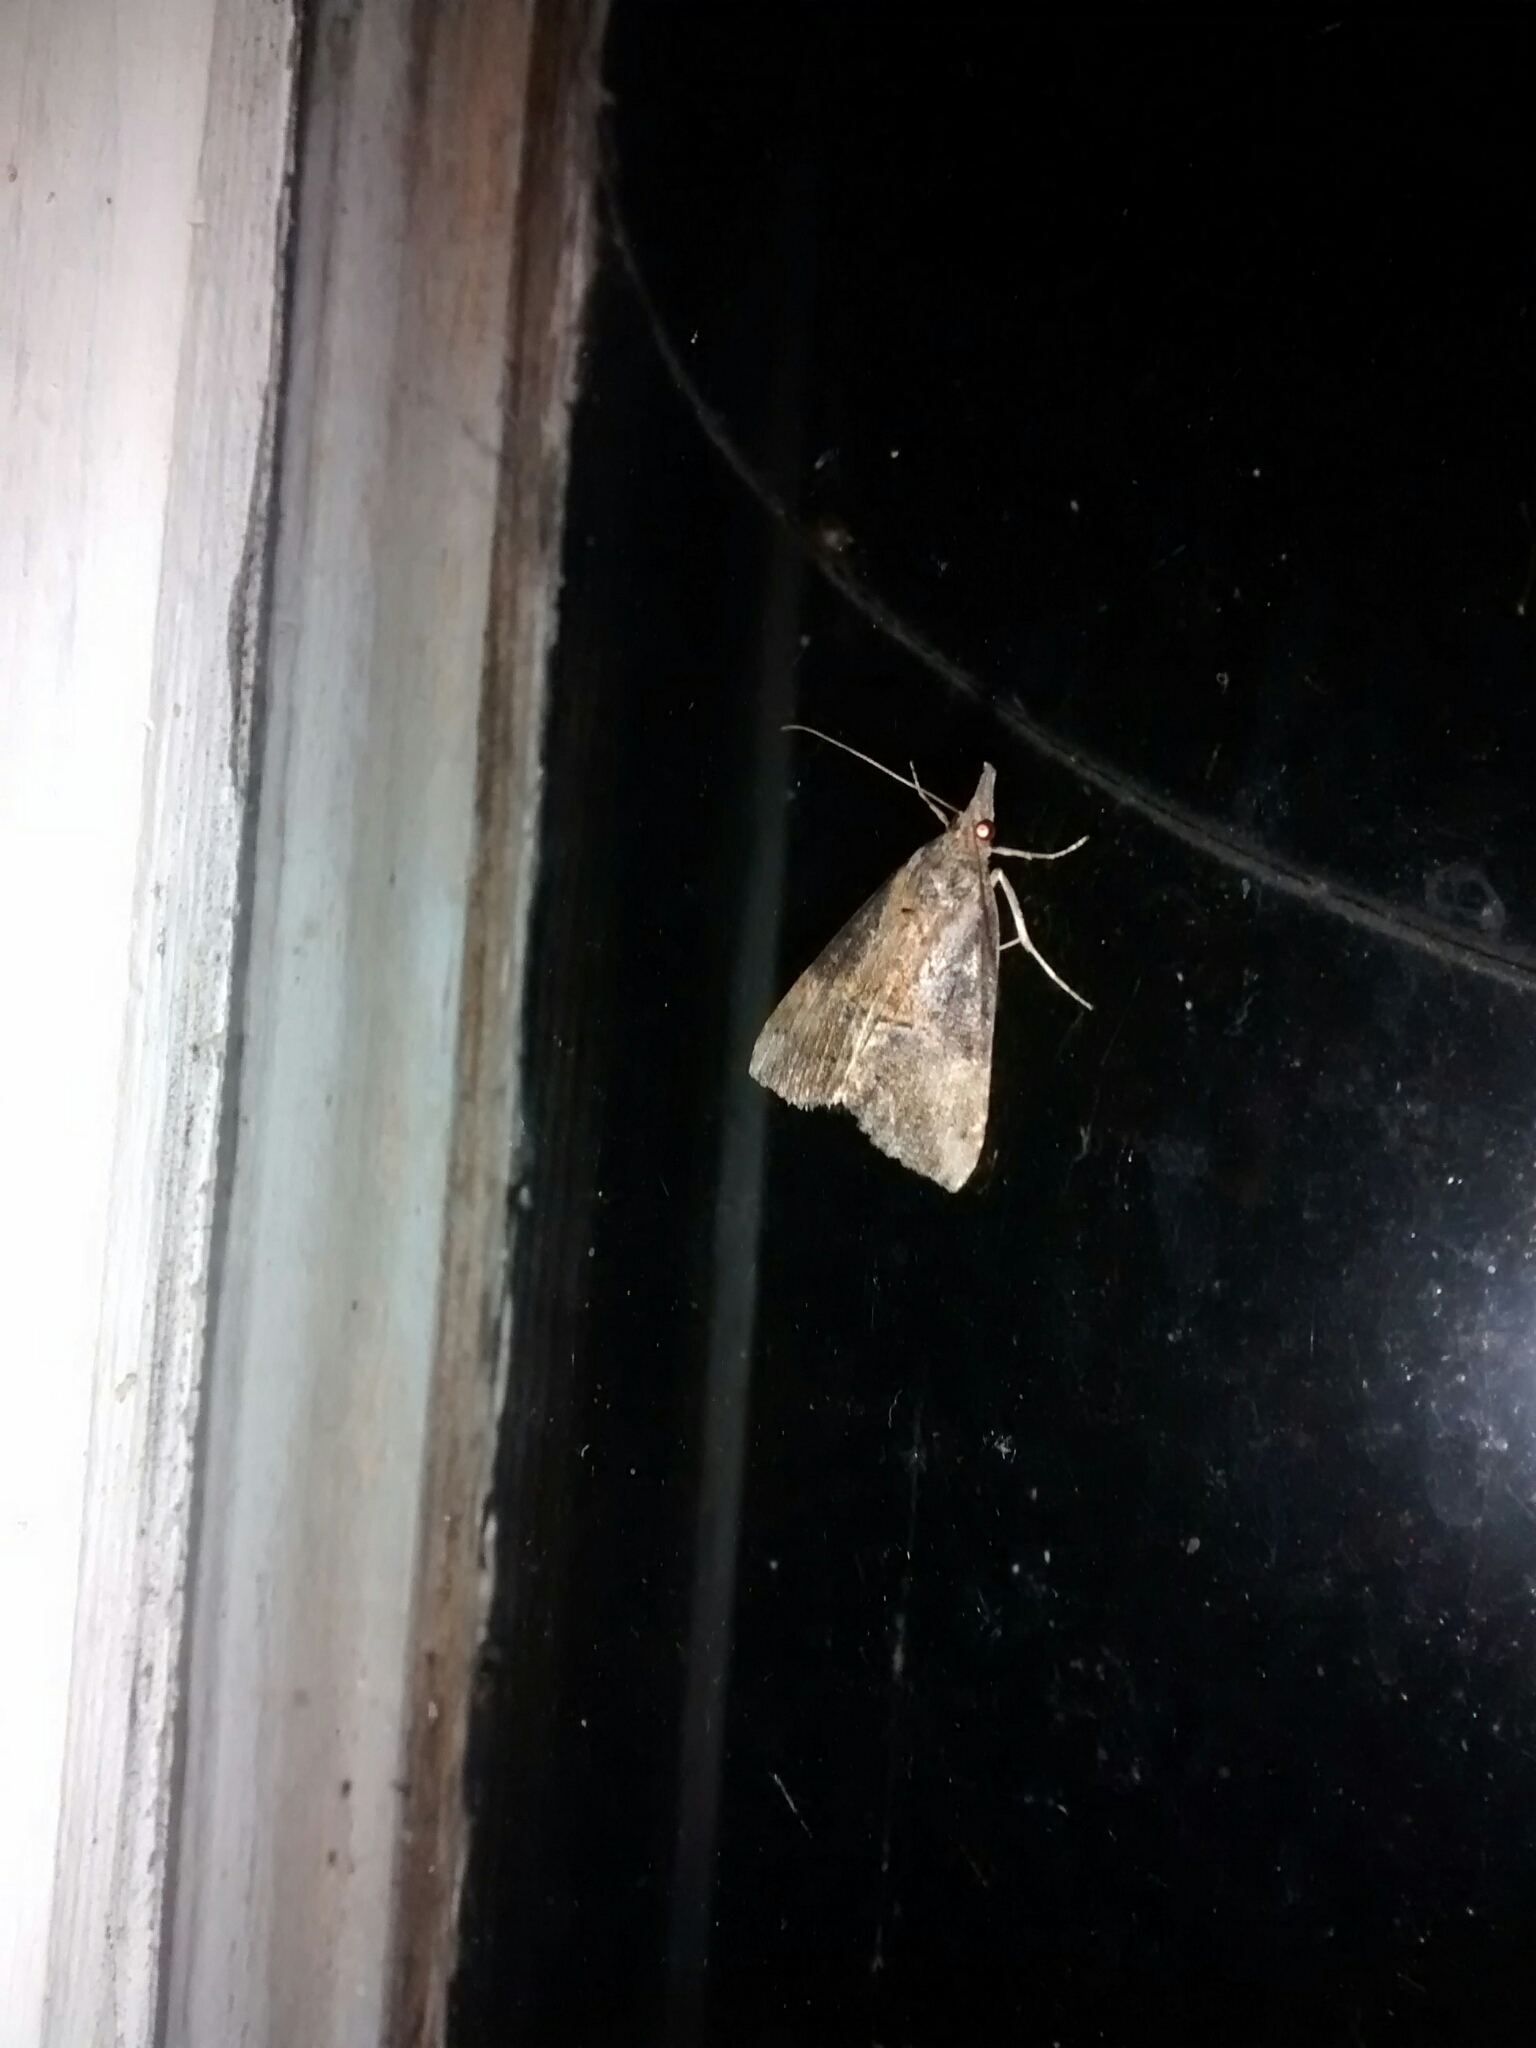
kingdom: Animalia
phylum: Arthropoda
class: Insecta
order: Lepidoptera
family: Erebidae
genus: Hypena
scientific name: Hypena humuli
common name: Hop vine snout
